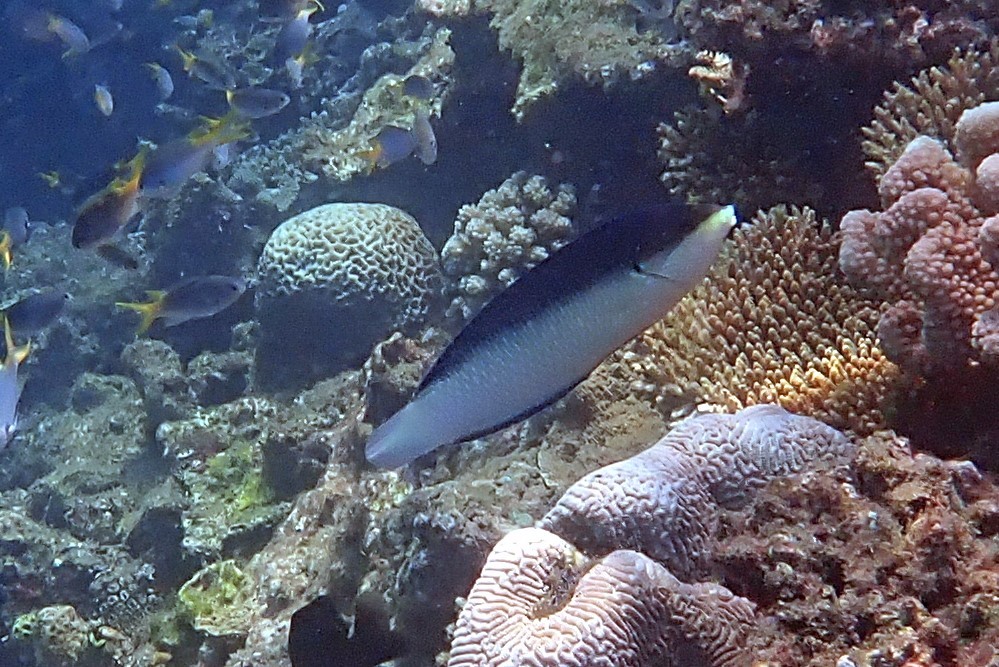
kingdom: Animalia
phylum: Chordata
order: Perciformes
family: Labridae
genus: Anampses
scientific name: Anampses neoguinaicus
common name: New guinea wrasse
